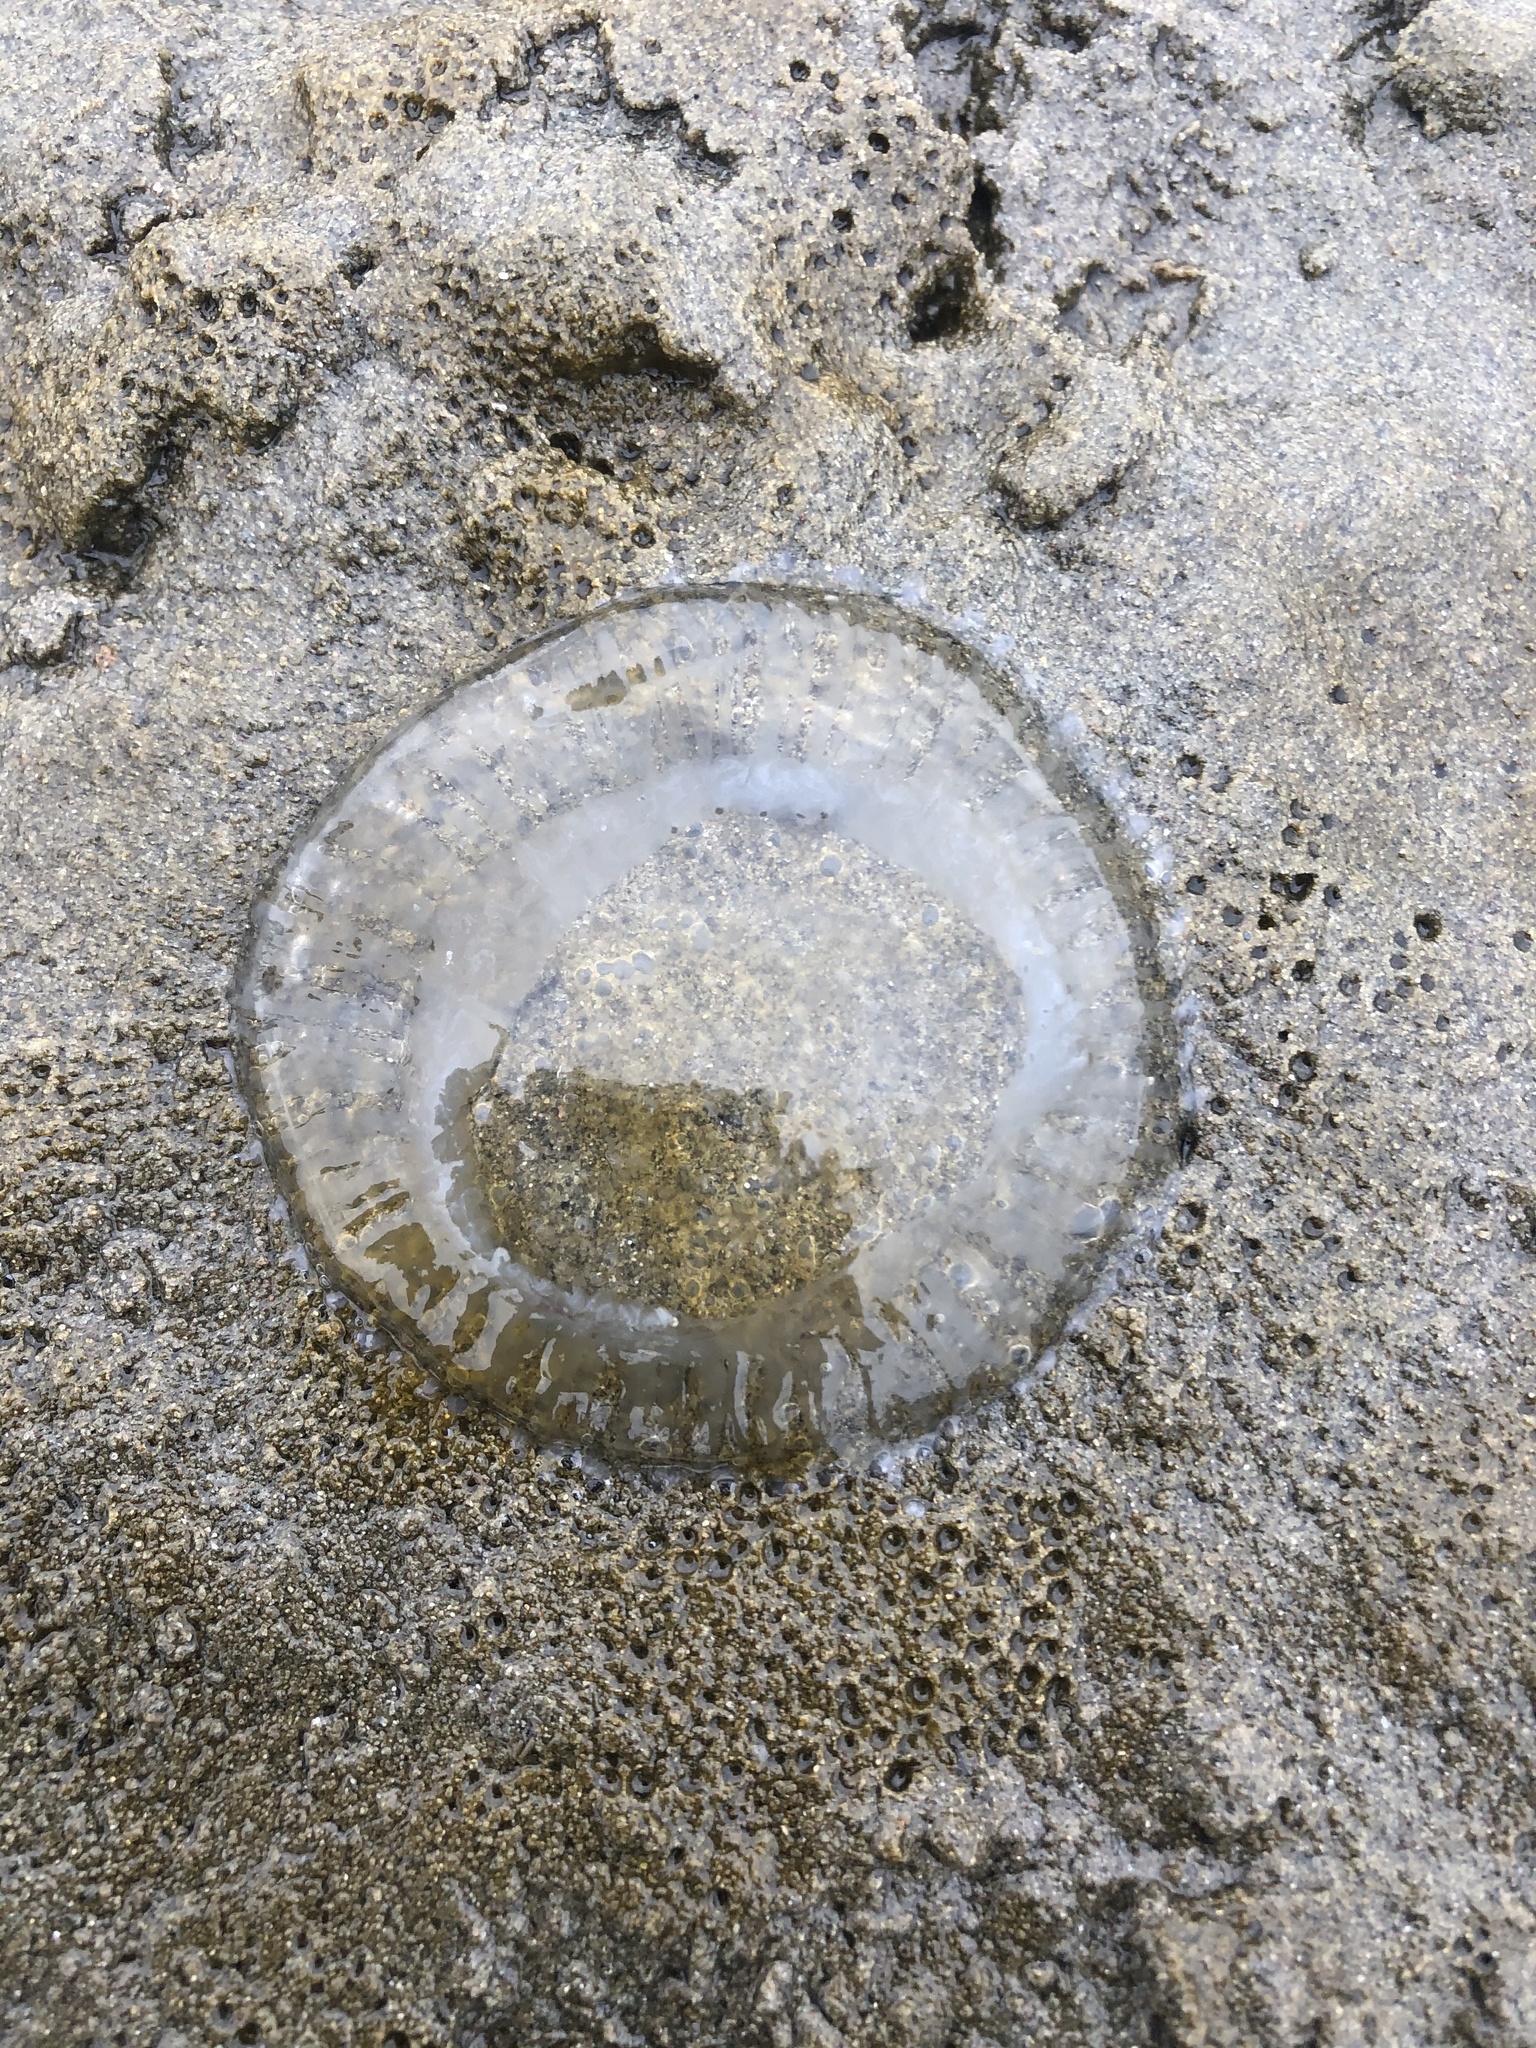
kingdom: Animalia
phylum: Cnidaria
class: Hydrozoa
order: Leptothecata
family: Aequoreidae
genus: Aequorea
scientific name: Aequorea victoria
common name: Water jellyfish
